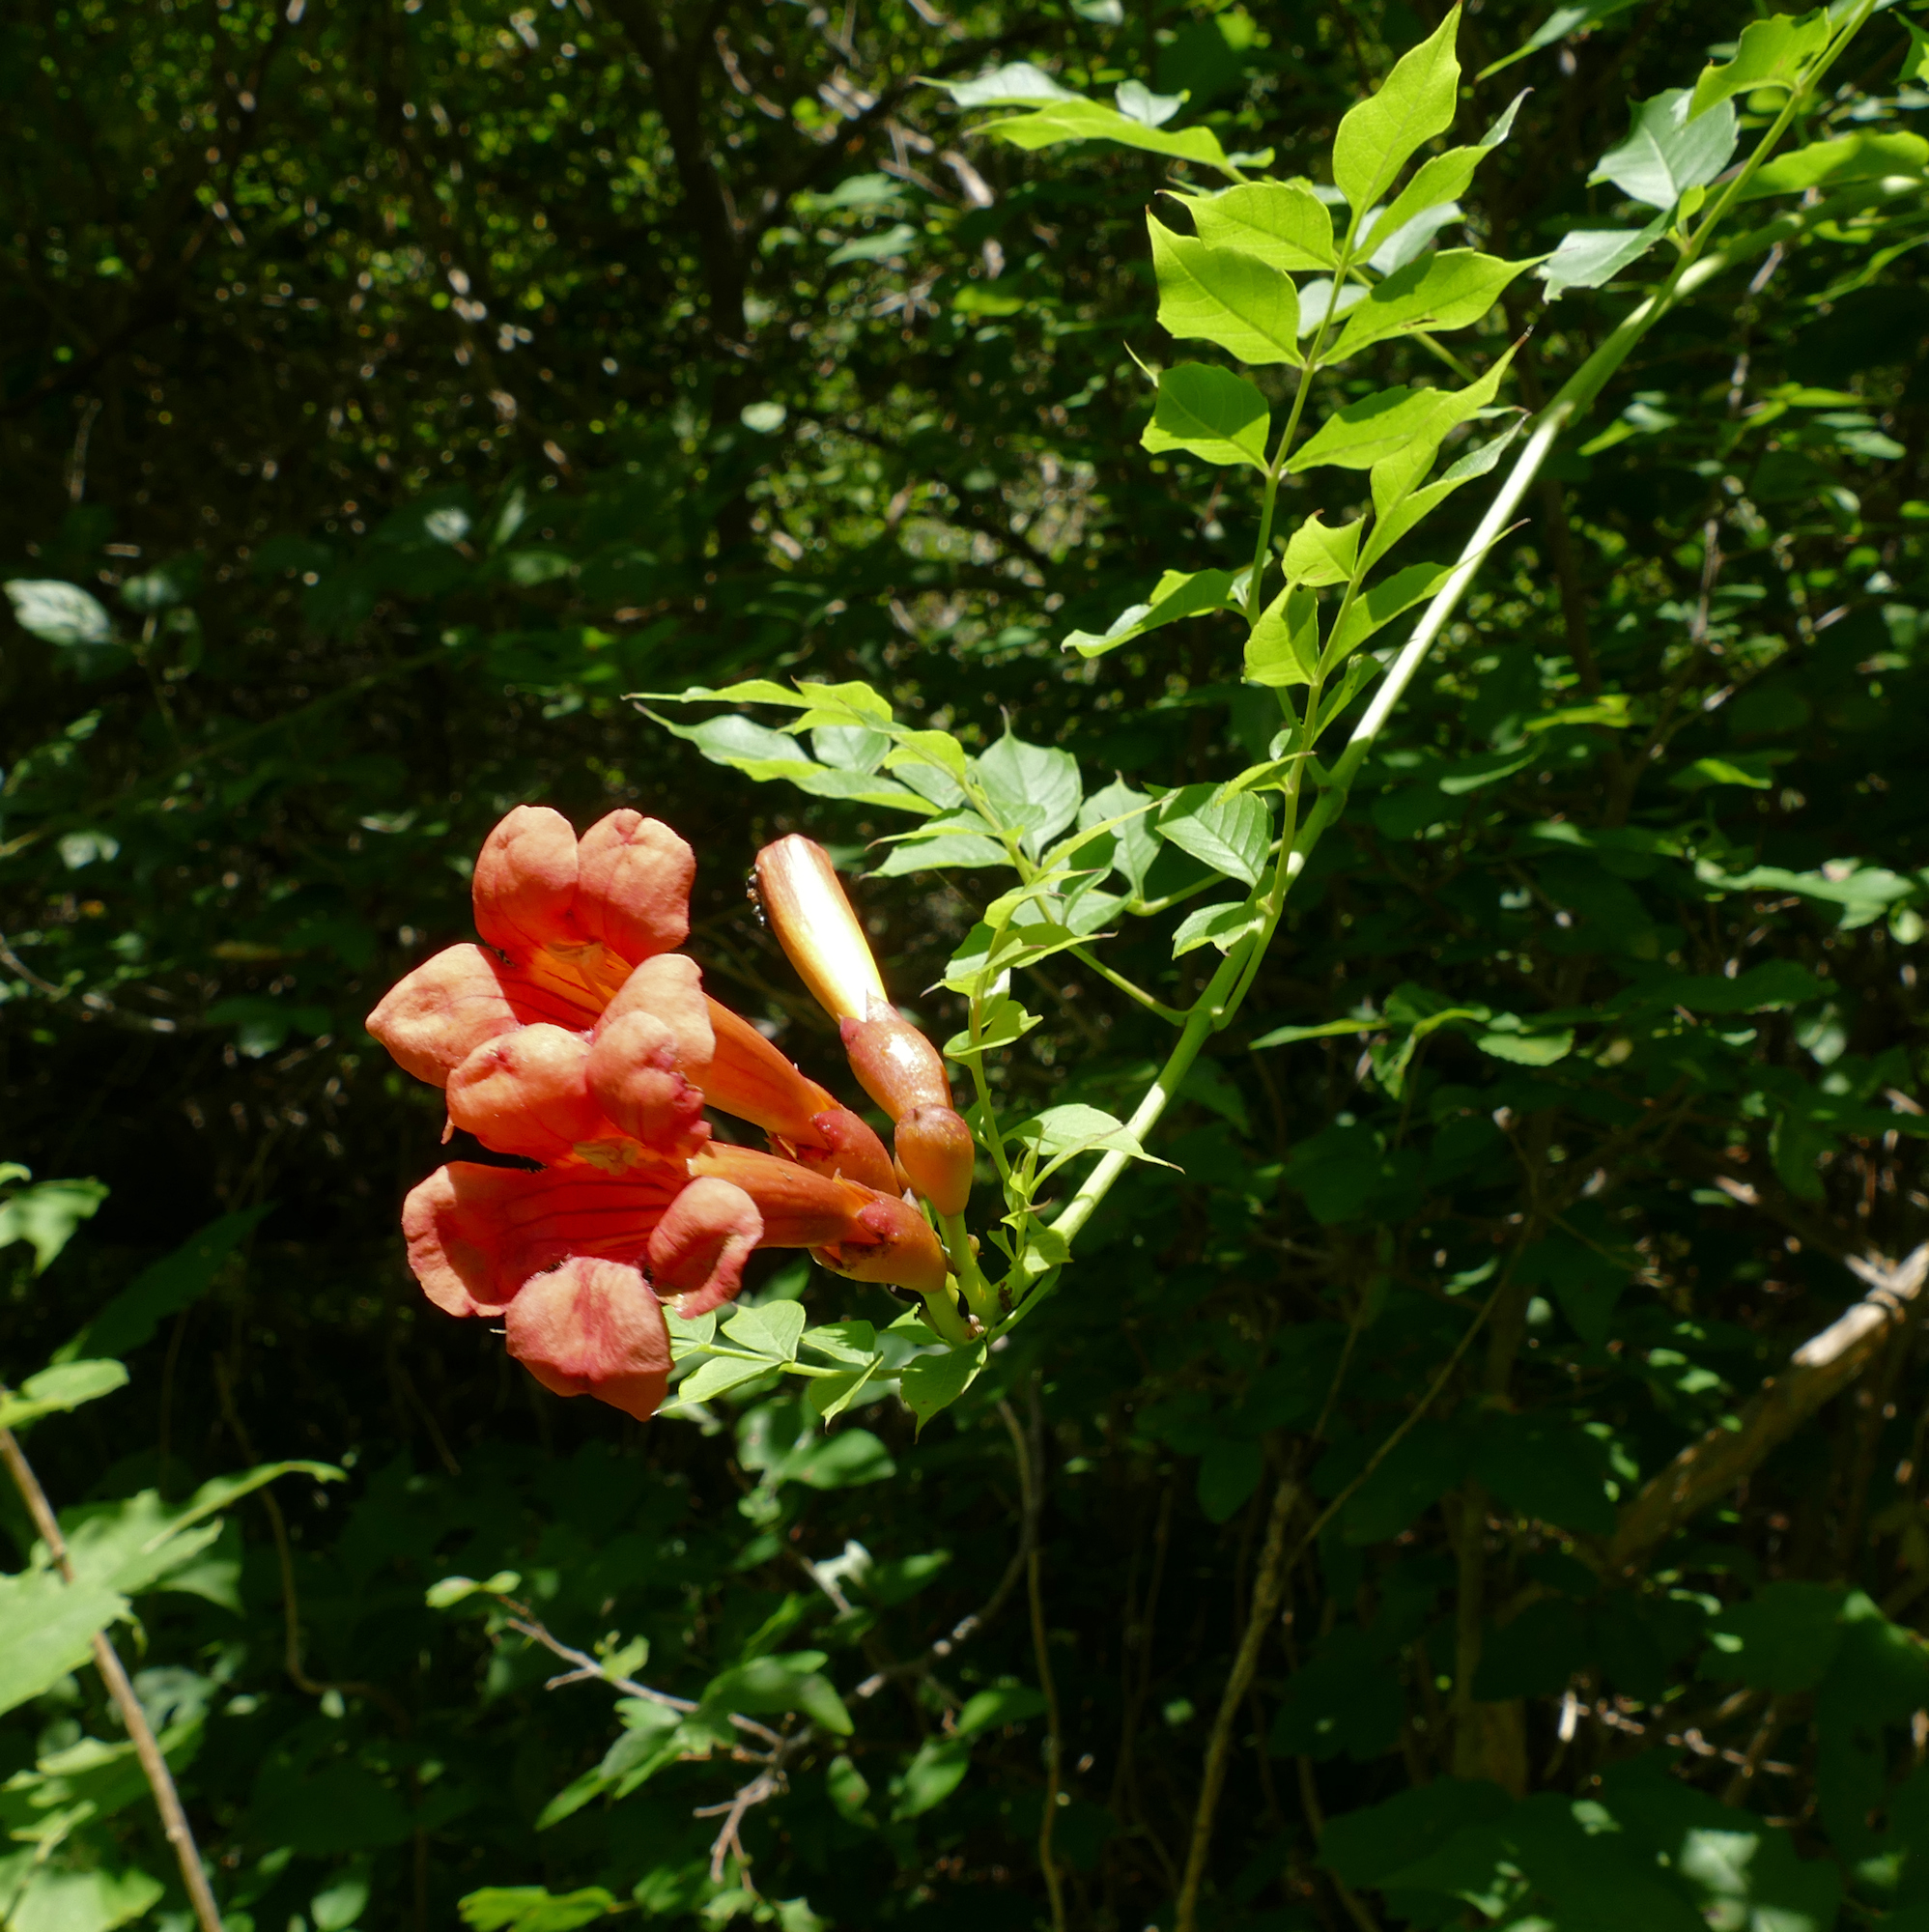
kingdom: Plantae
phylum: Tracheophyta
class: Magnoliopsida
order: Lamiales
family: Bignoniaceae
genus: Campsis
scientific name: Campsis radicans
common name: Trumpet-creeper
